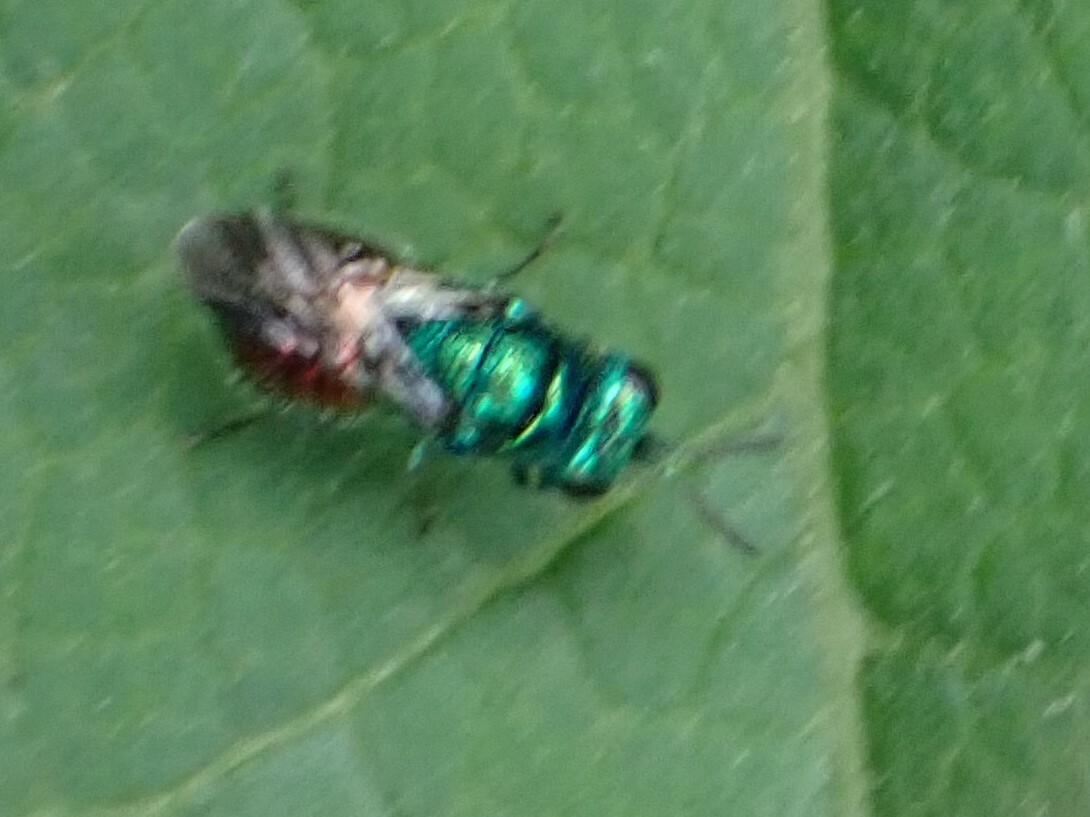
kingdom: Animalia
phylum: Arthropoda
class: Insecta
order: Hymenoptera
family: Chrysididae
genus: Pseudomalus
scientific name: Pseudomalus auratus
